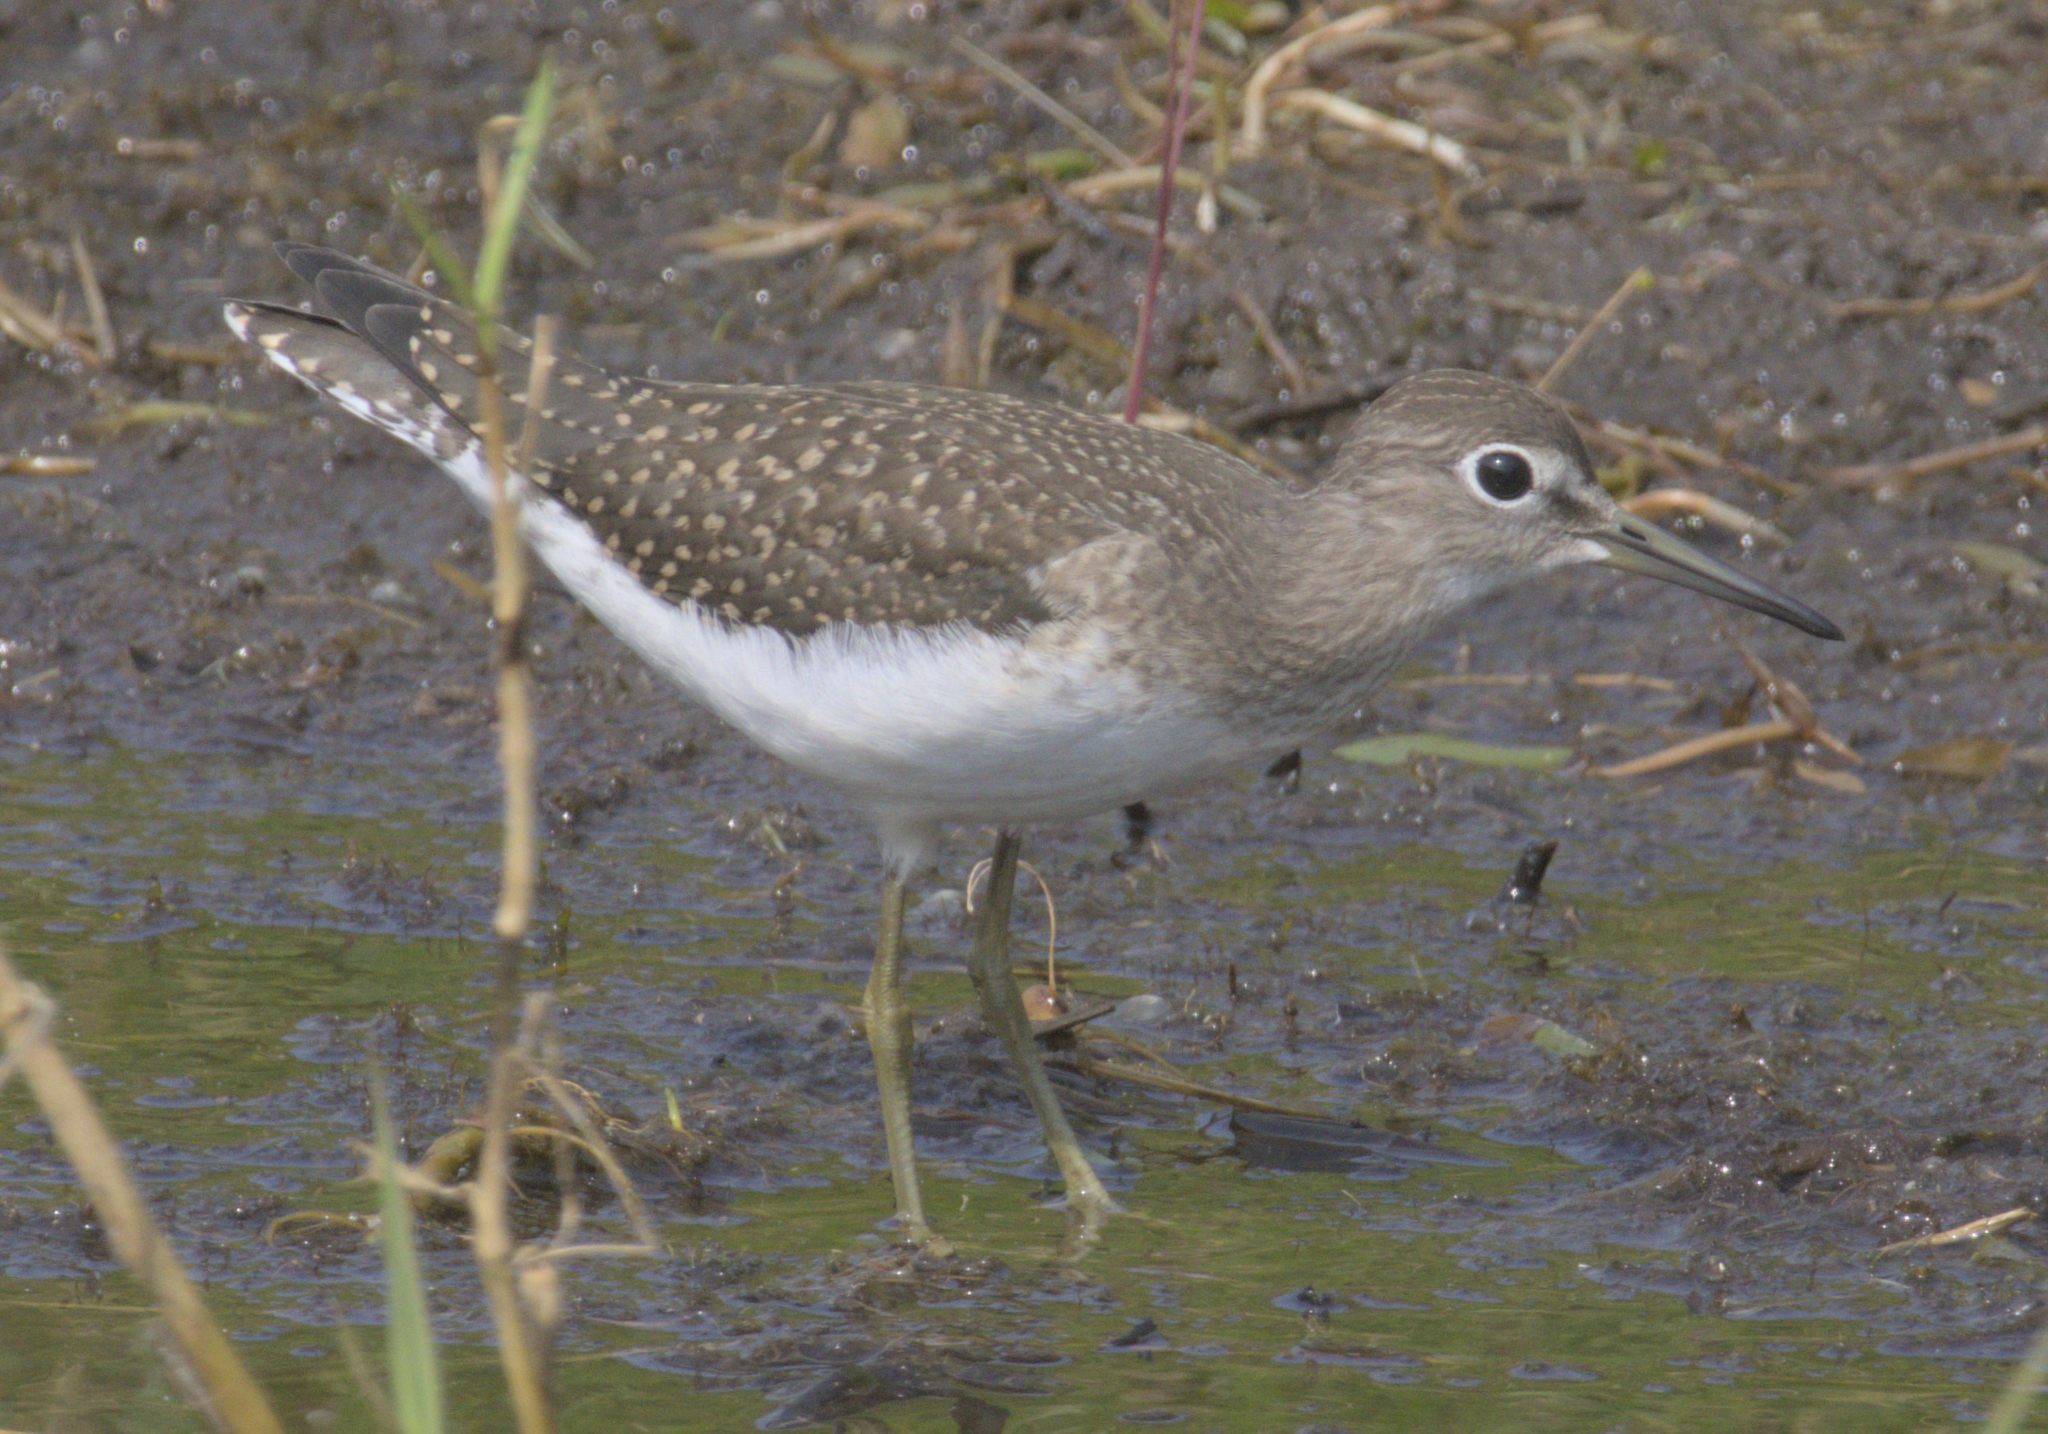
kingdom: Animalia
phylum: Chordata
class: Aves
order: Charadriiformes
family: Scolopacidae
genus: Tringa
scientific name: Tringa solitaria
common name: Solitary sandpiper
